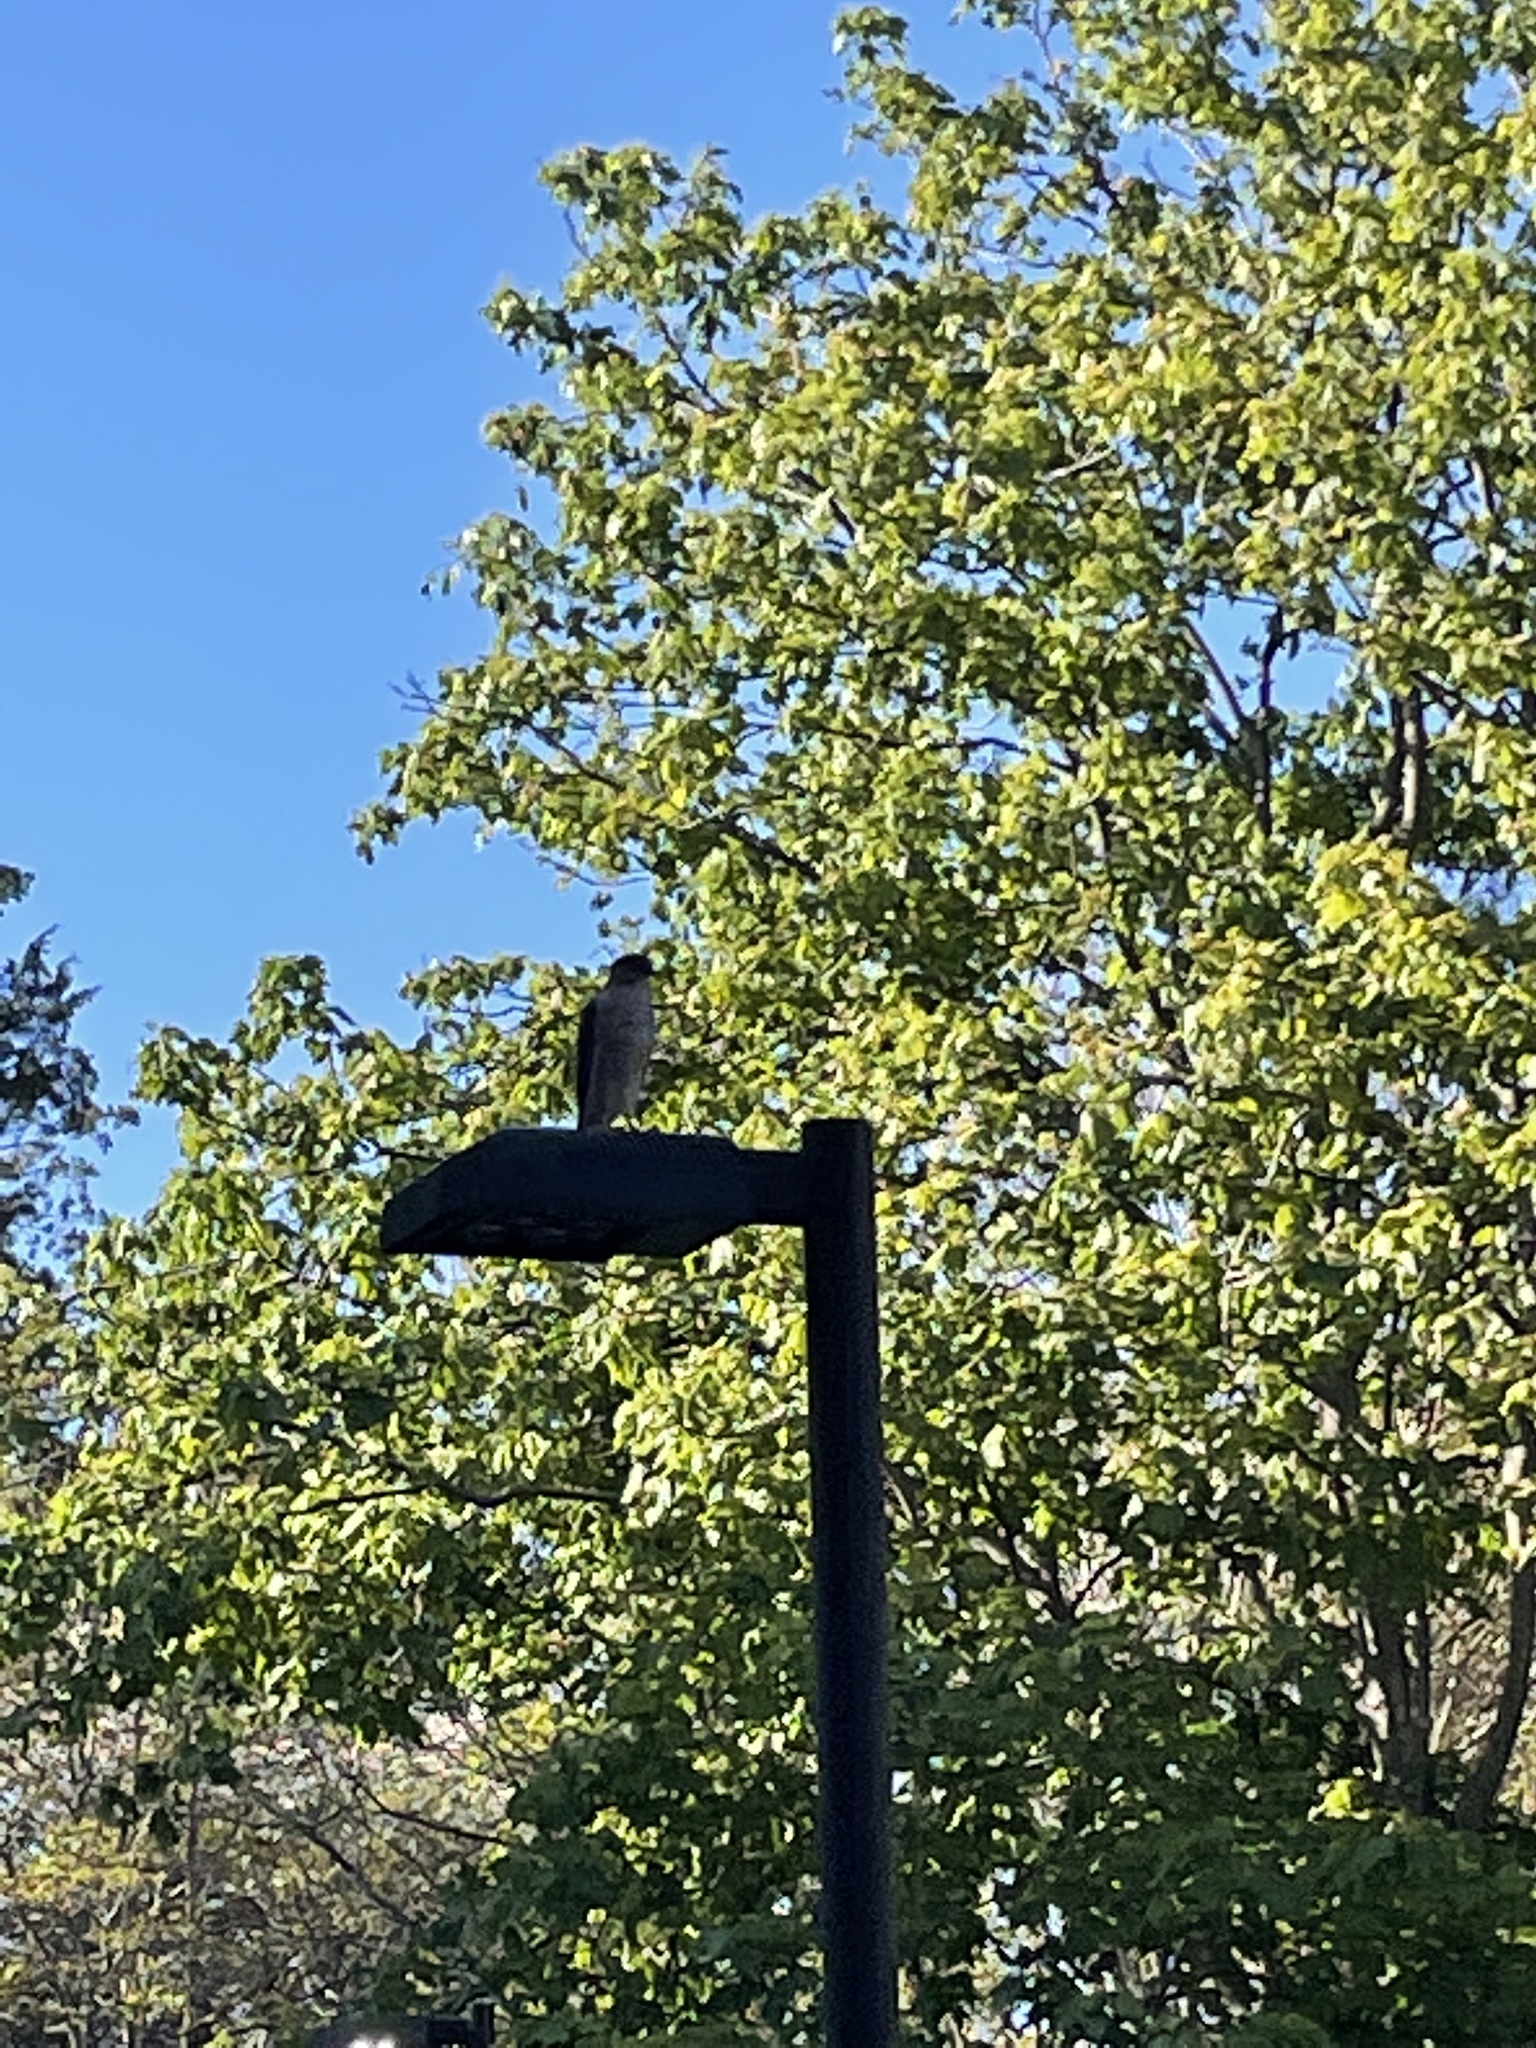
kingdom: Animalia
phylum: Chordata
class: Aves
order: Accipitriformes
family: Accipitridae
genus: Accipiter
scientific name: Accipiter cooperii
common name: Cooper's hawk
